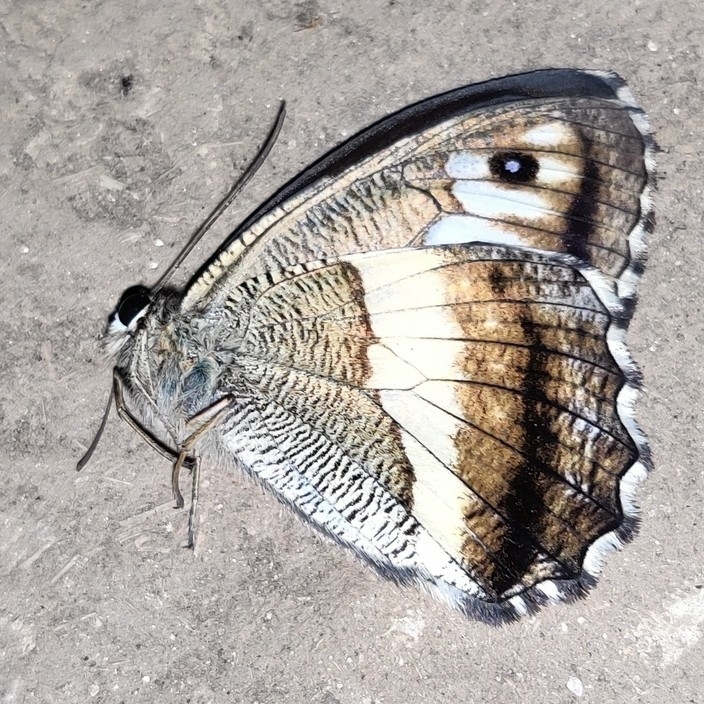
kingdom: Animalia
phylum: Arthropoda
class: Insecta
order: Lepidoptera
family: Nymphalidae
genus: Satyrus
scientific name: Satyrus
